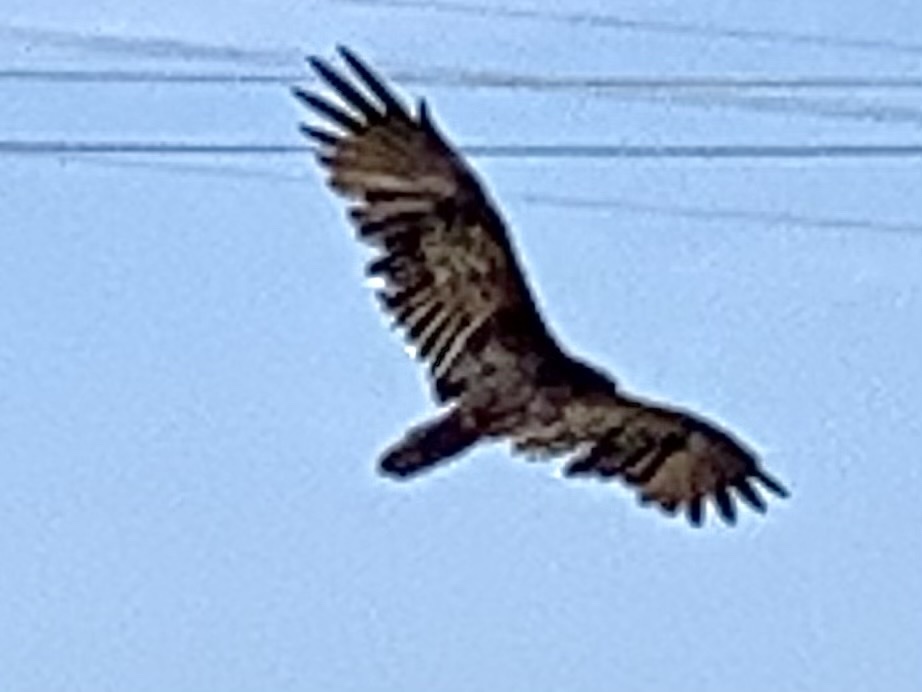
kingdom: Animalia
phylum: Chordata
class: Aves
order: Accipitriformes
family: Cathartidae
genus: Cathartes
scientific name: Cathartes aura
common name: Turkey vulture
